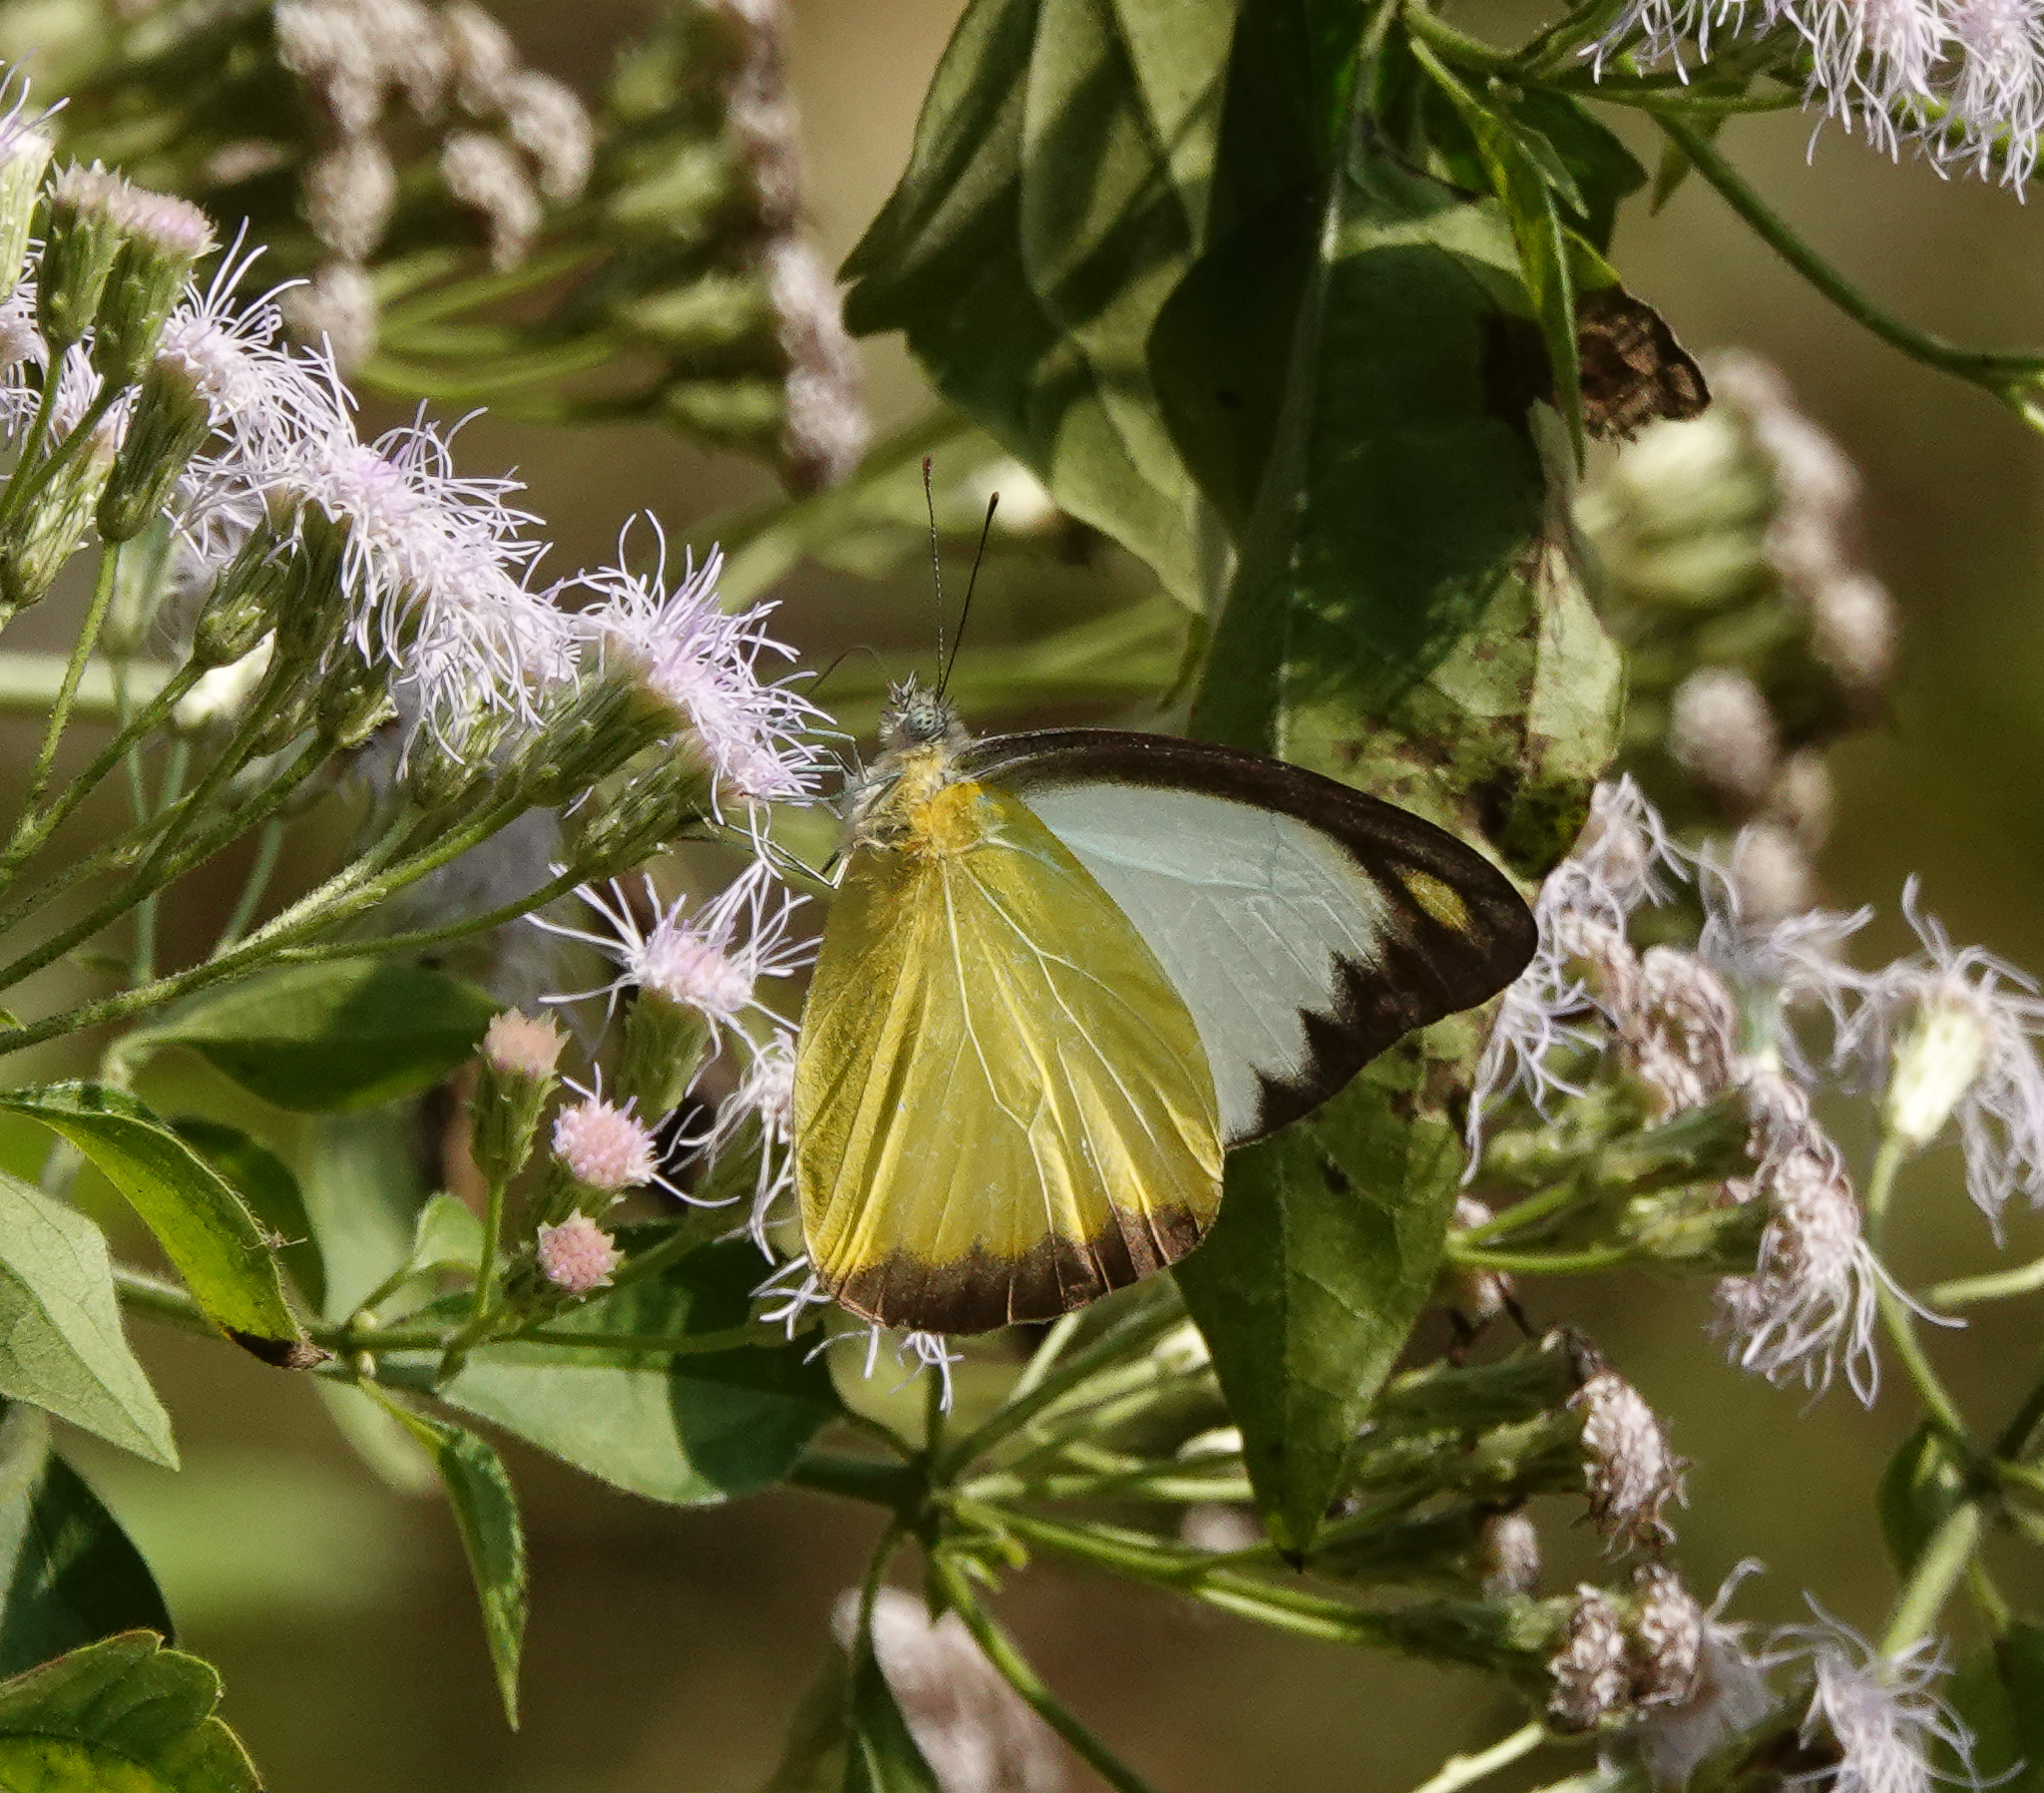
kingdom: Animalia
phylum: Arthropoda
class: Insecta
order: Lepidoptera
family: Pieridae
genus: Appias
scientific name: Appias lyncida
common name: Chocolate albatross
